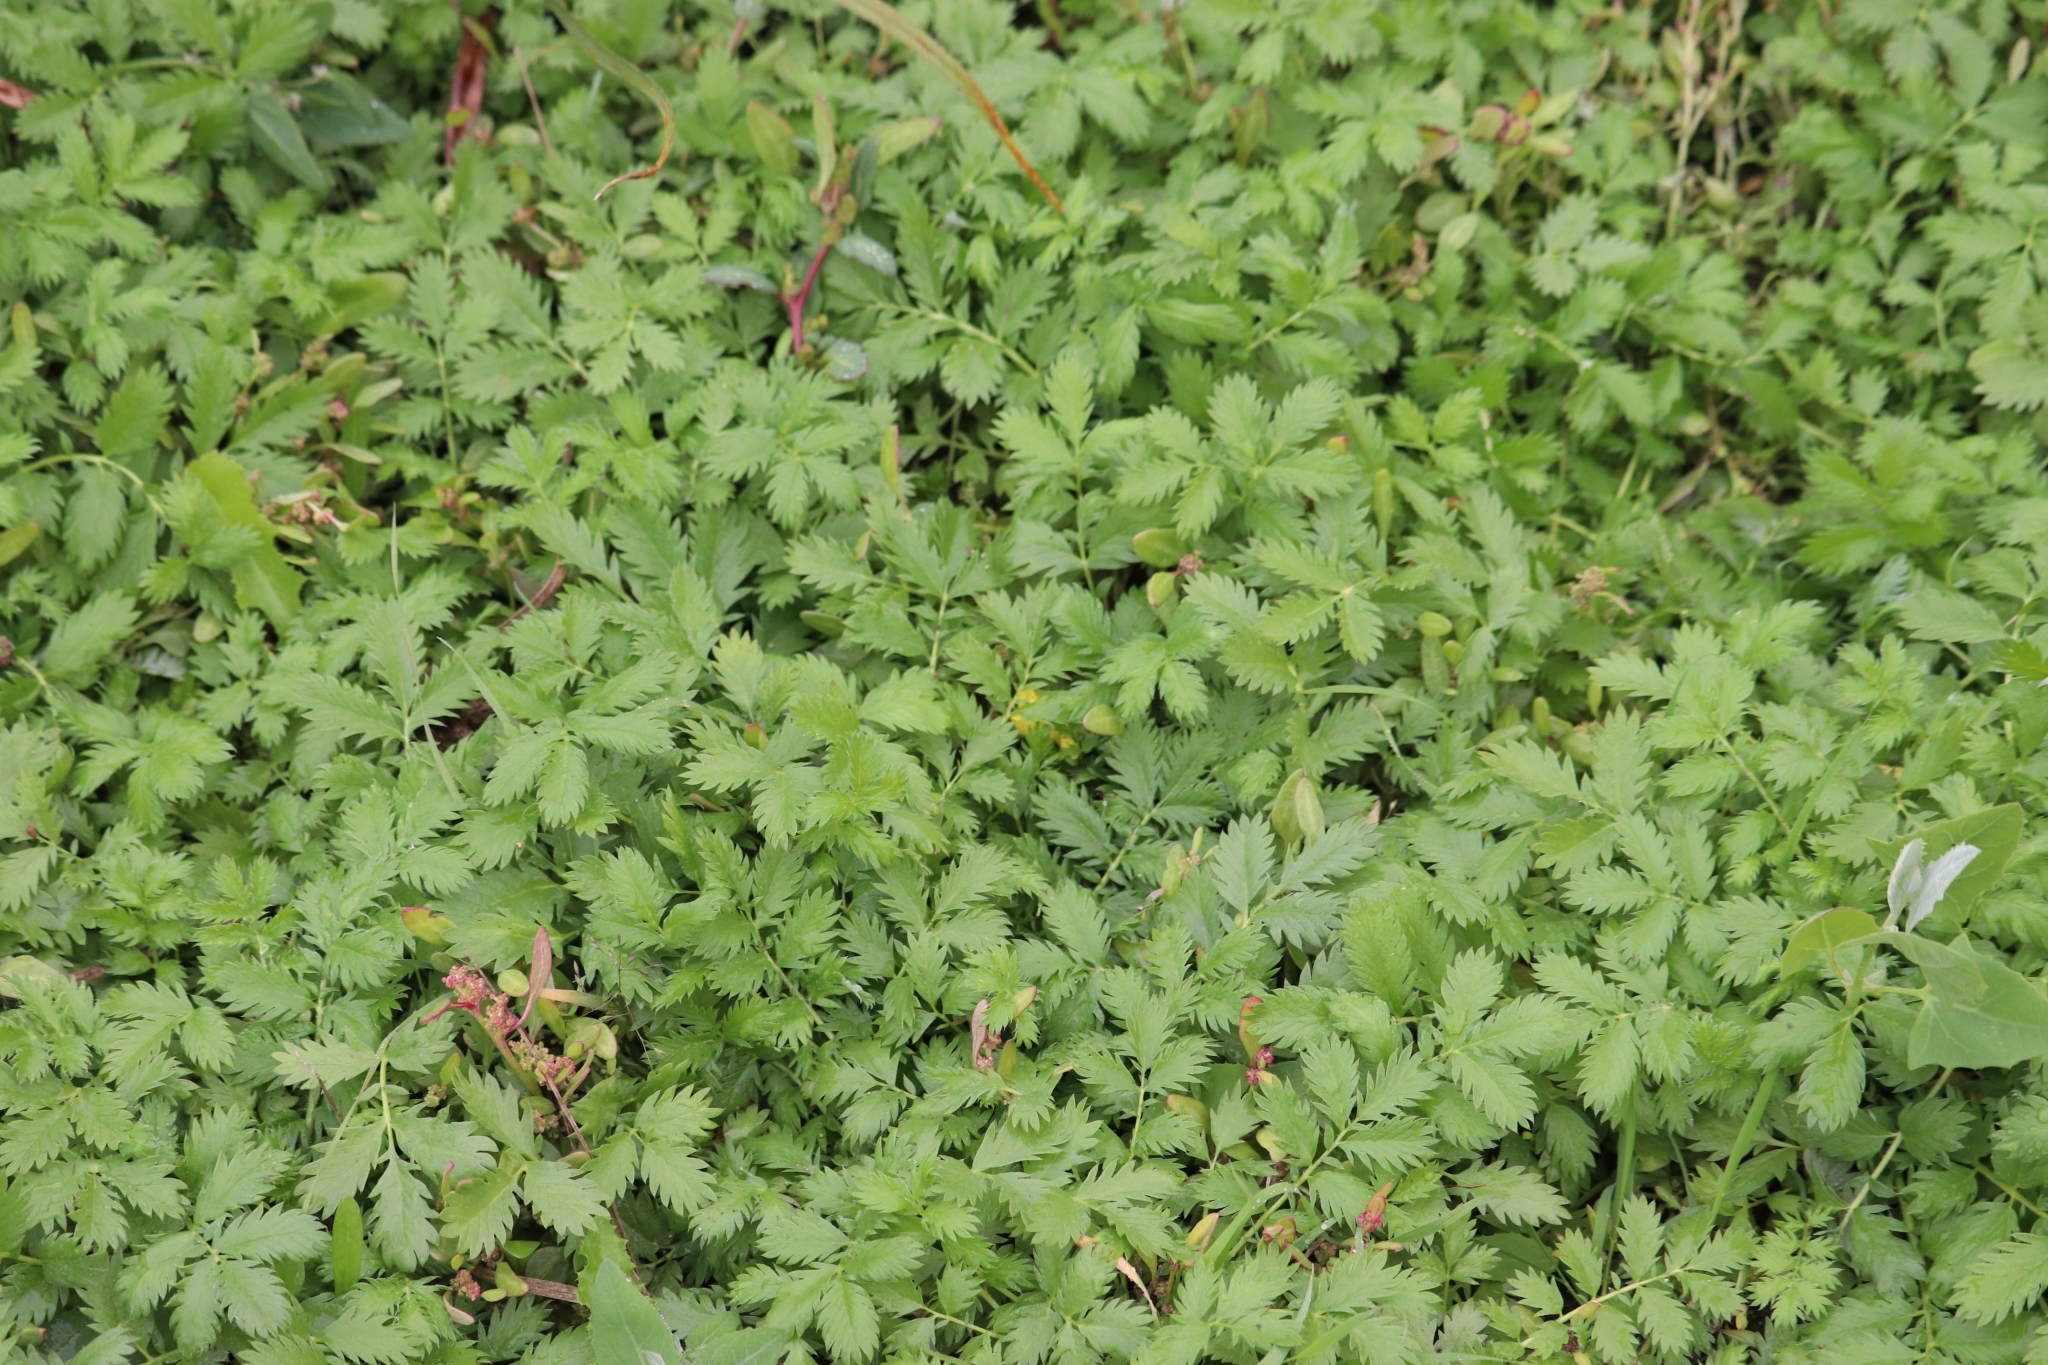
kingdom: Plantae
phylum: Tracheophyta
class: Magnoliopsida
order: Rosales
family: Rosaceae
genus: Argentina
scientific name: Argentina anserina
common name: Common silverweed
